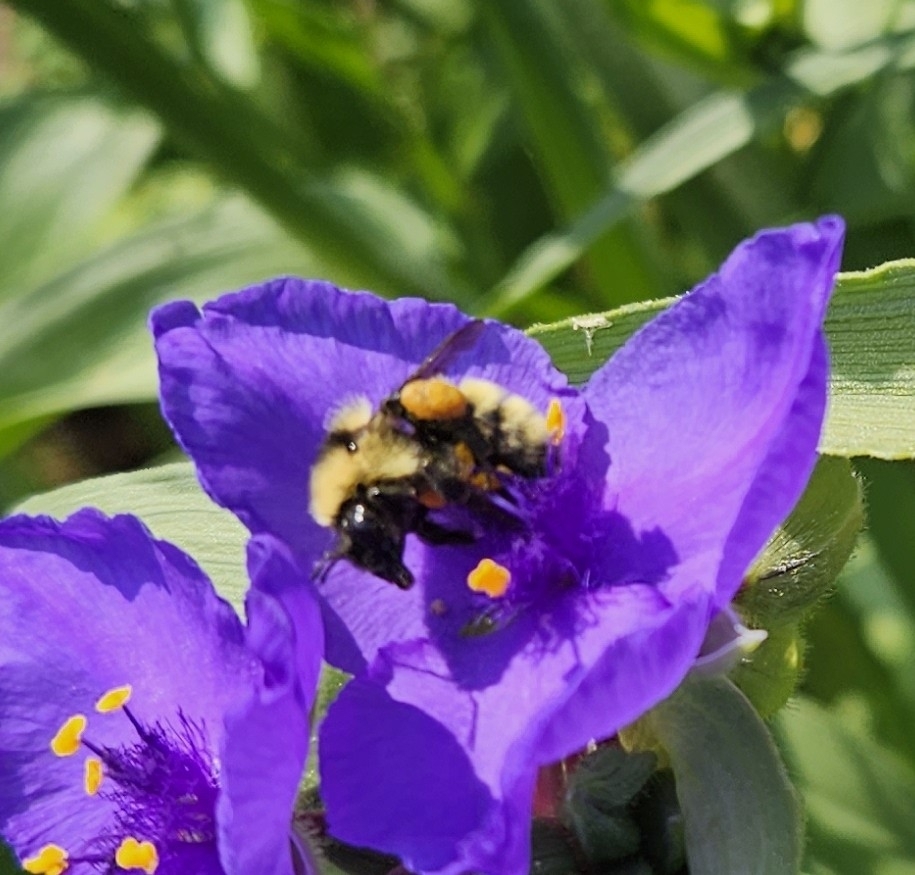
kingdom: Animalia
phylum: Arthropoda
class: Insecta
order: Hymenoptera
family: Apidae
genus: Bombus
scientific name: Bombus fervidus
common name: Yellow bumble bee
